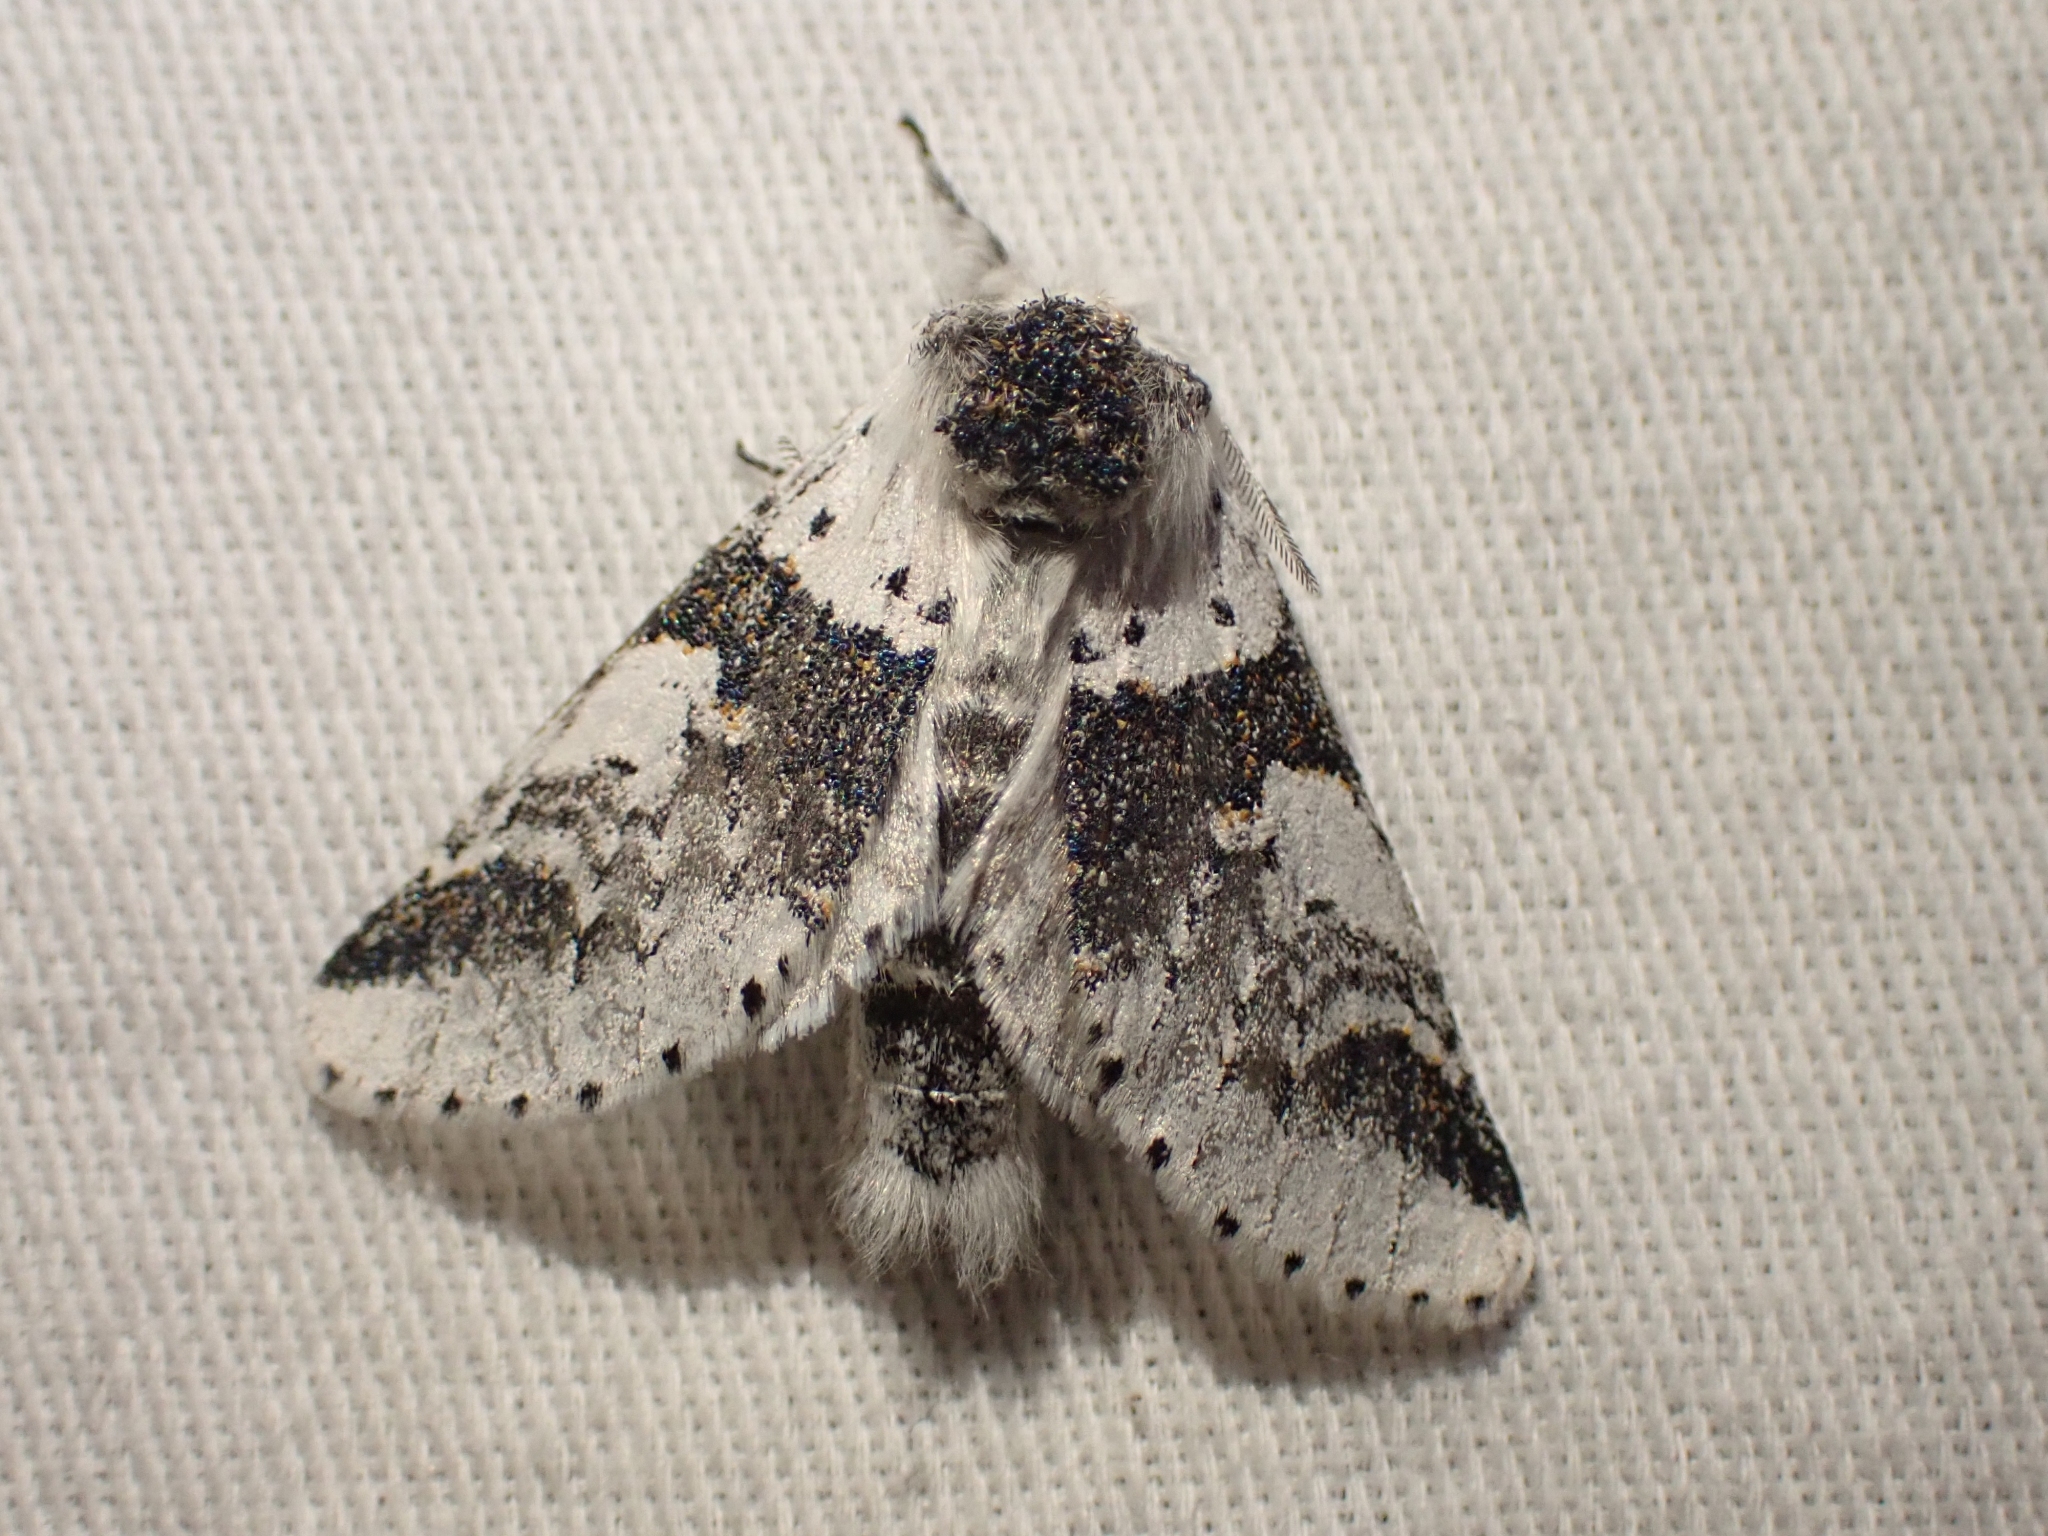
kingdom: Animalia
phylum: Arthropoda
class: Insecta
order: Lepidoptera
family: Notodontidae
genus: Furcula
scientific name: Furcula scolopendrina
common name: Zigzag furcula moth
